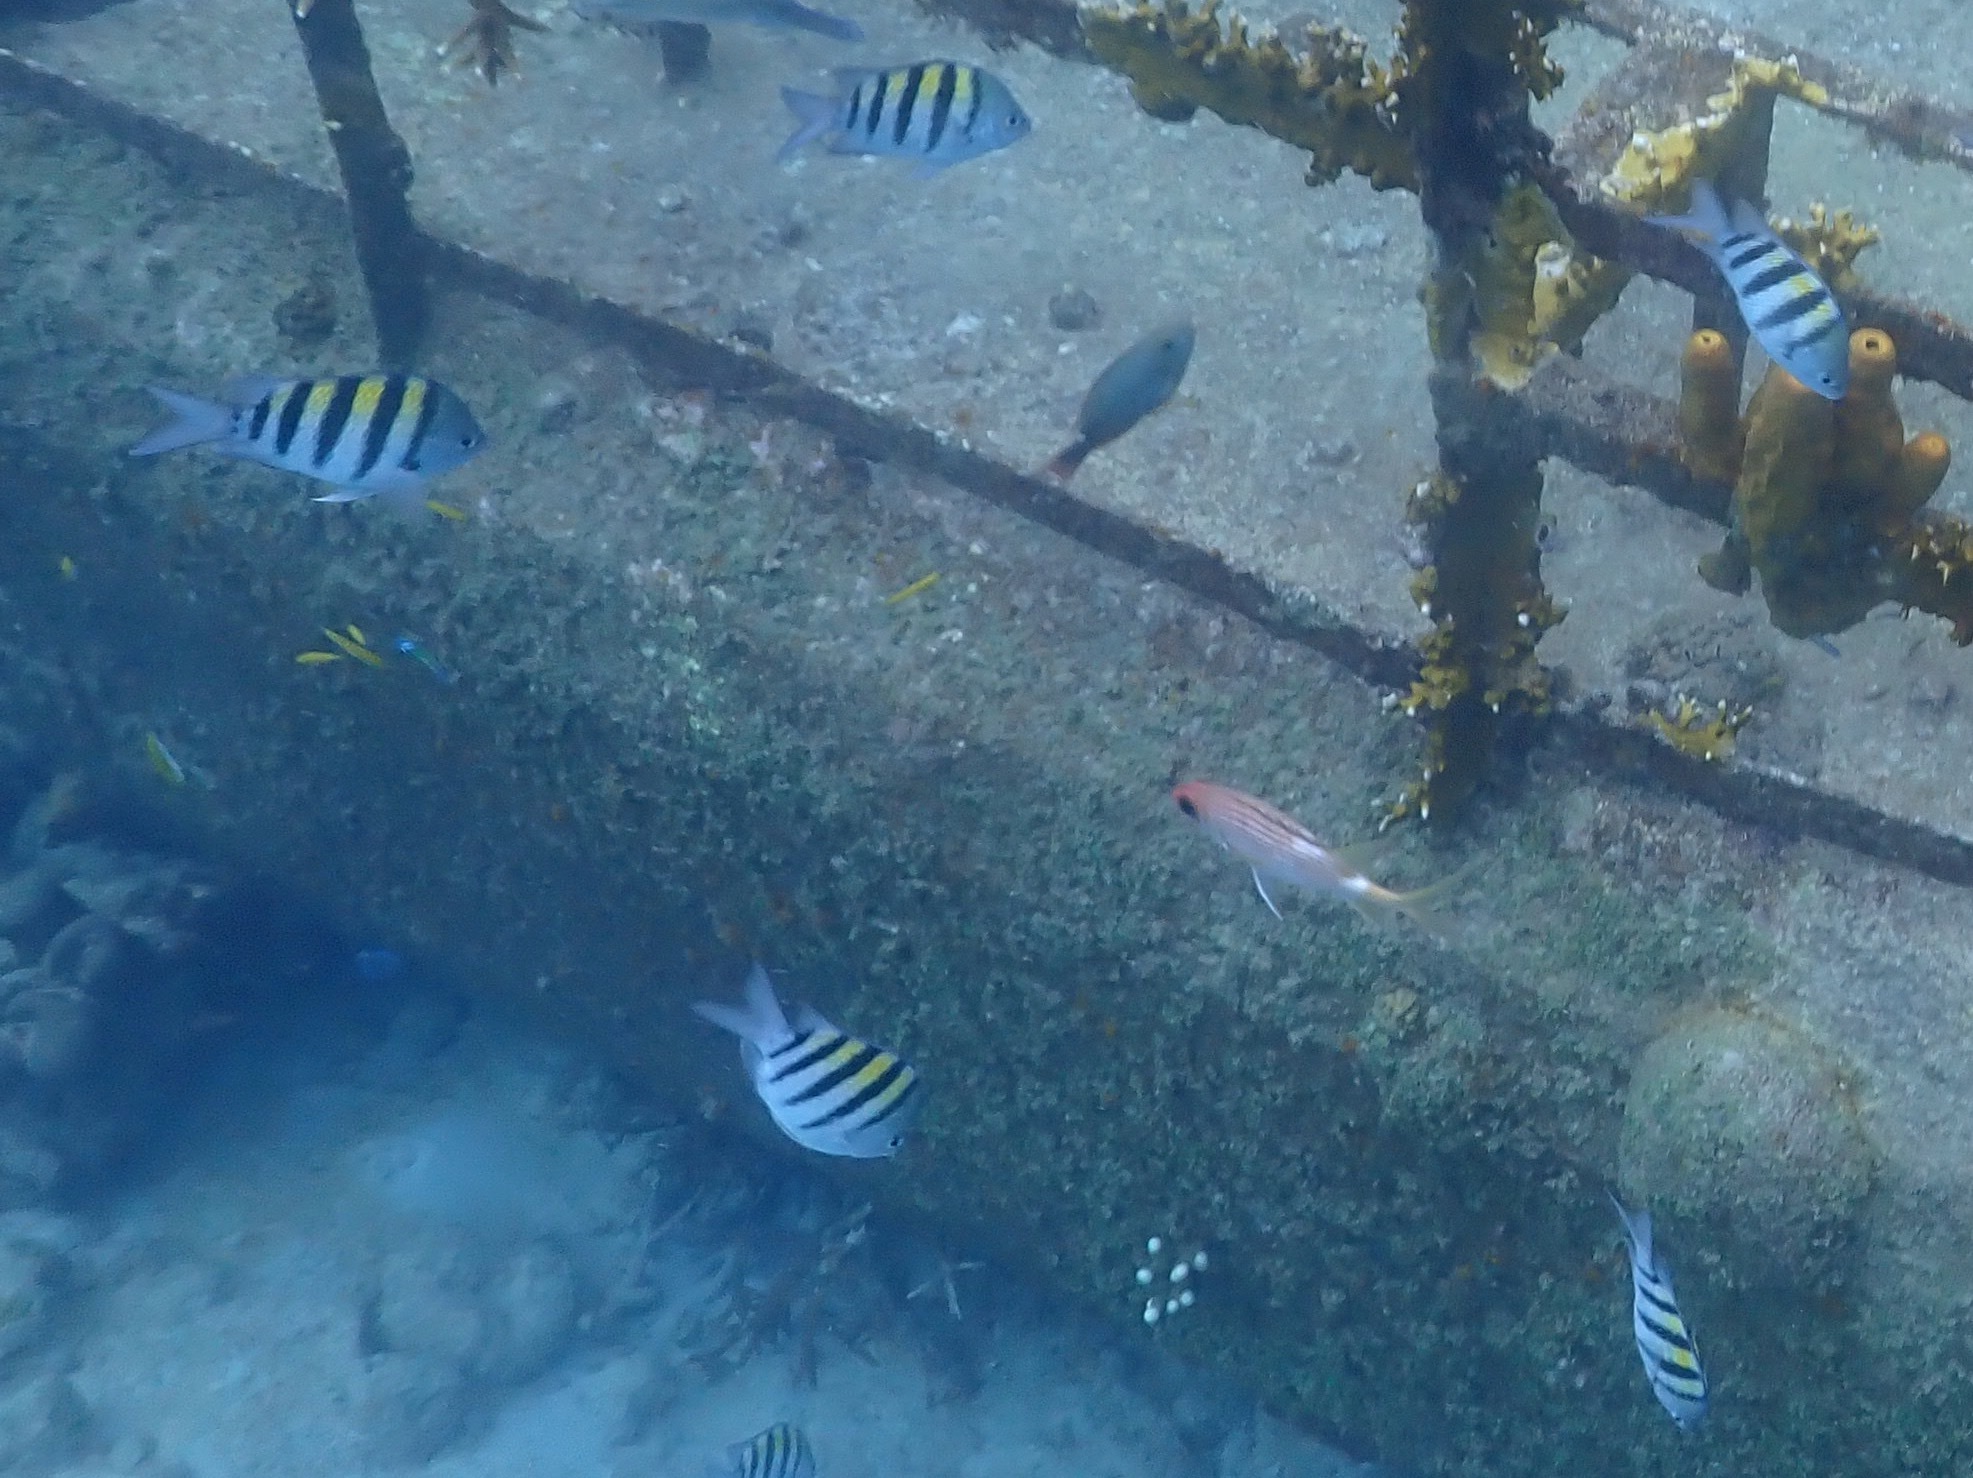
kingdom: Animalia
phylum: Chordata
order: Perciformes
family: Pomacentridae
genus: Abudefduf
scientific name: Abudefduf saxatilis
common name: Sergeant major
